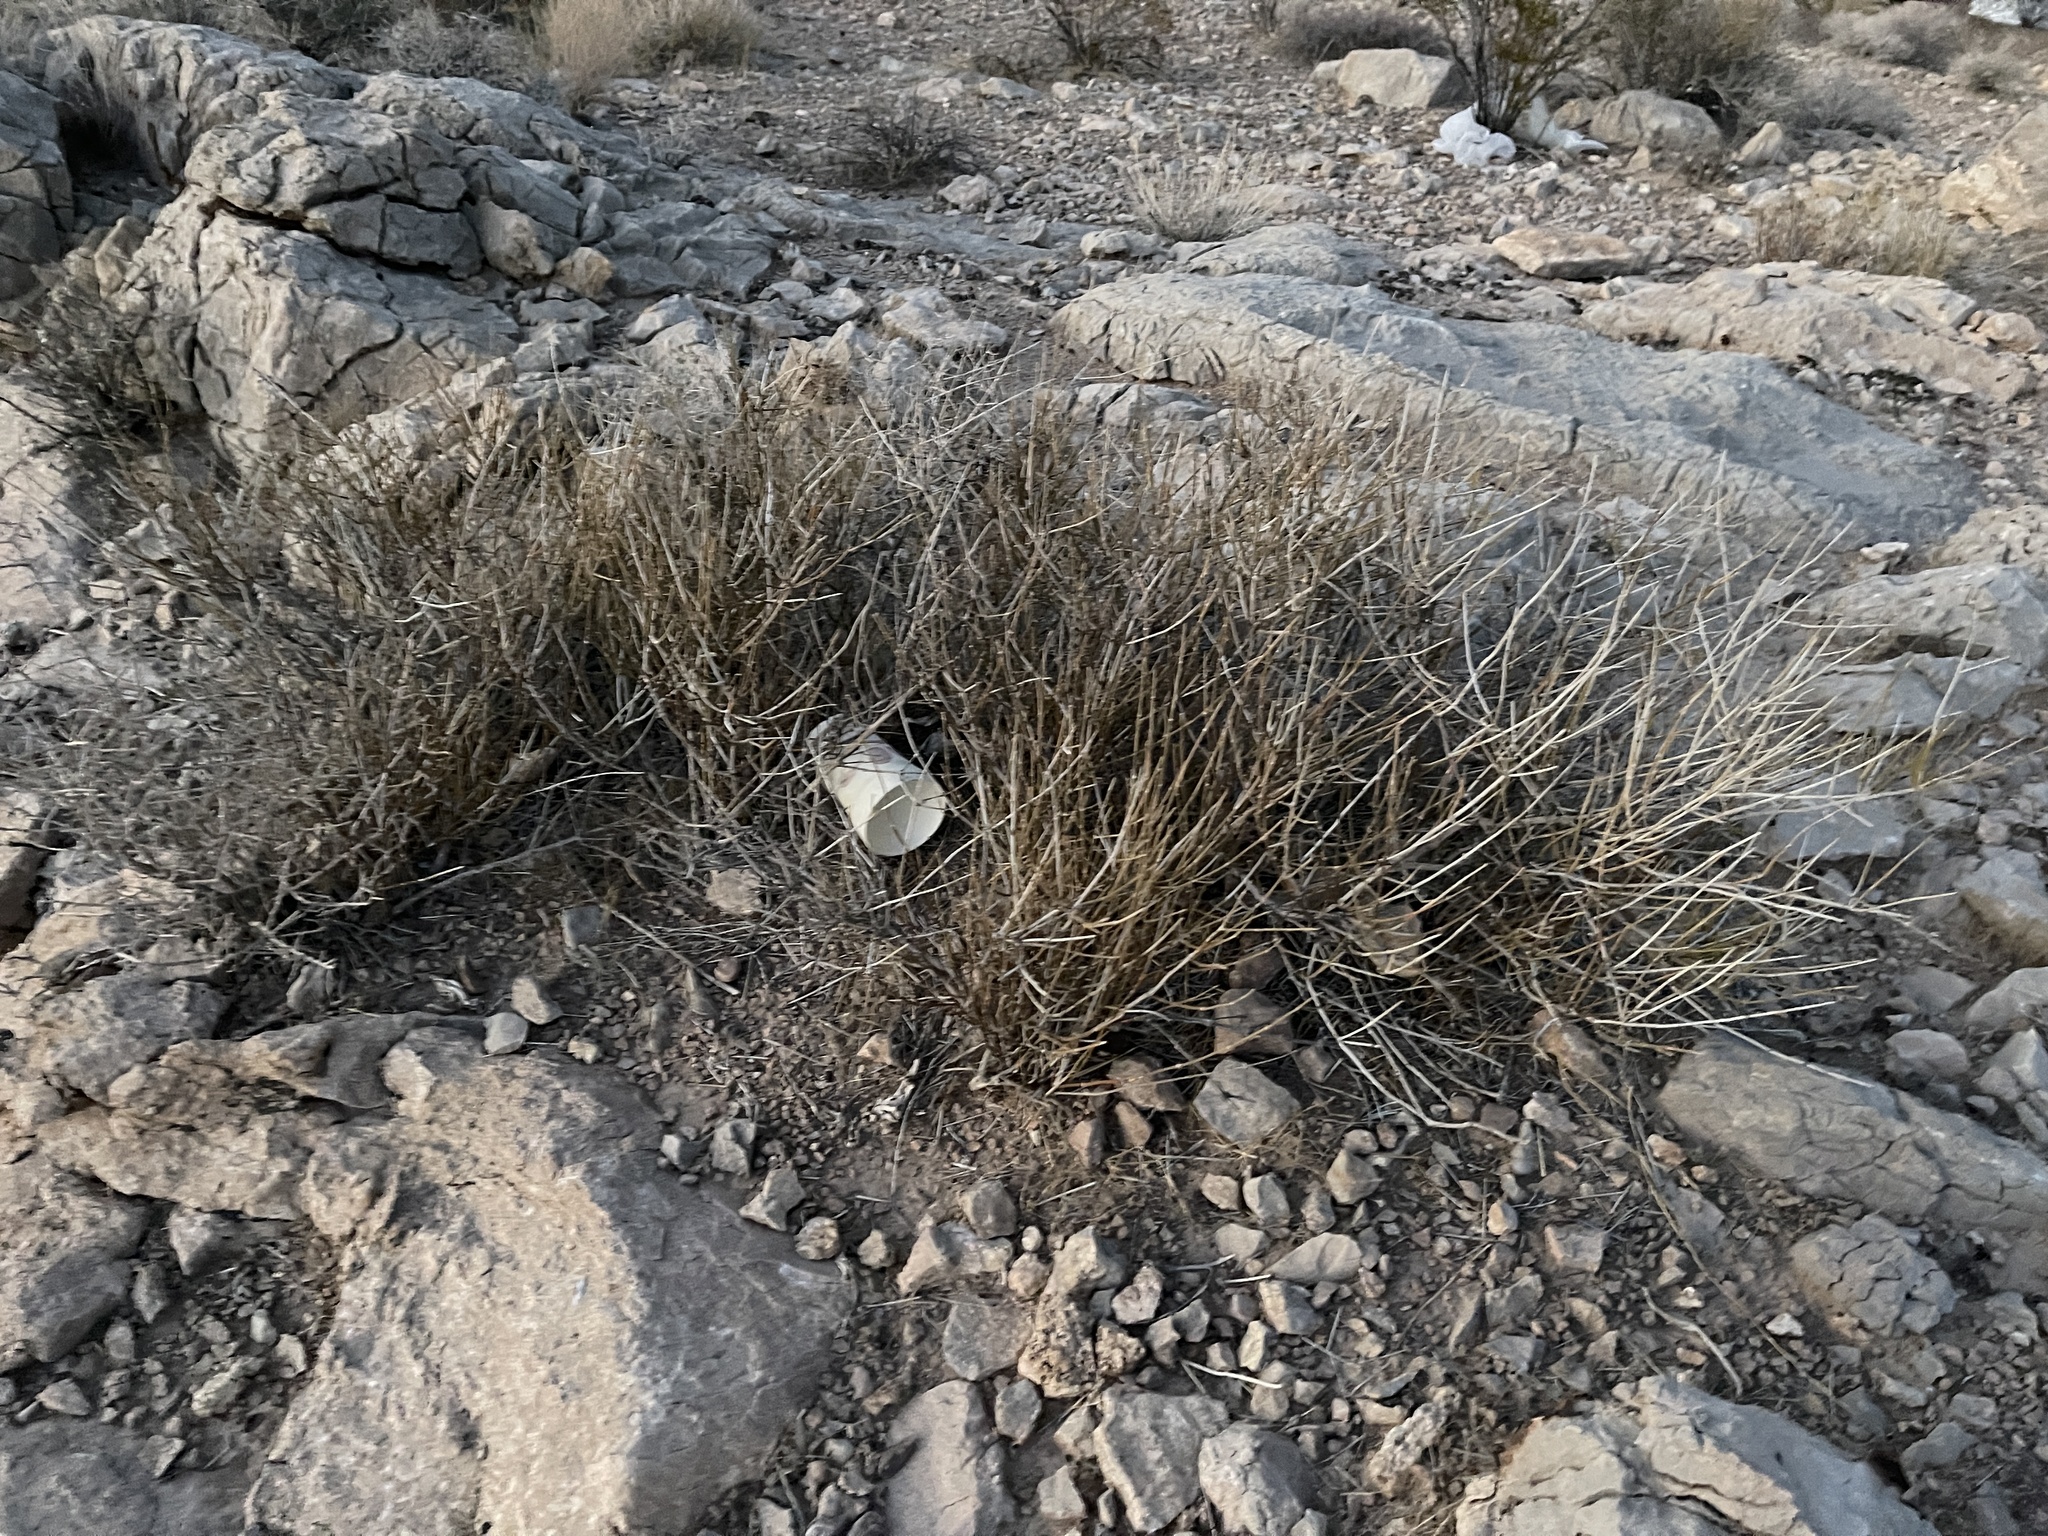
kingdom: Plantae
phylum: Tracheophyta
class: Gnetopsida
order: Ephedrales
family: Ephedraceae
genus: Ephedra
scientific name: Ephedra nevadensis
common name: Gray ephedra
